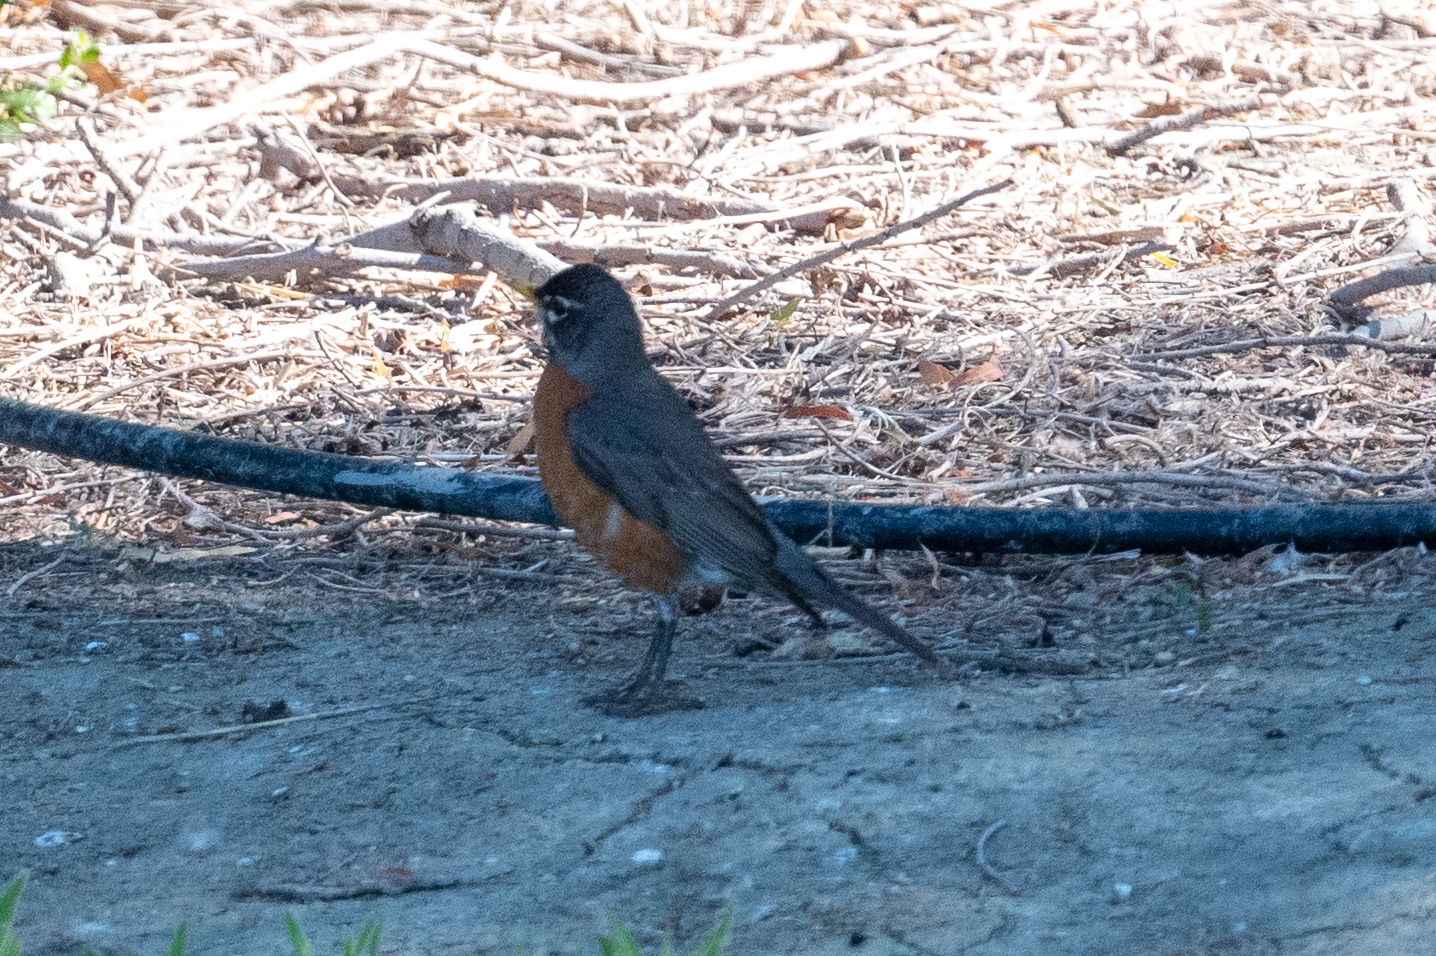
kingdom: Animalia
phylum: Chordata
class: Aves
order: Passeriformes
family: Turdidae
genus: Turdus
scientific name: Turdus migratorius
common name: American robin
